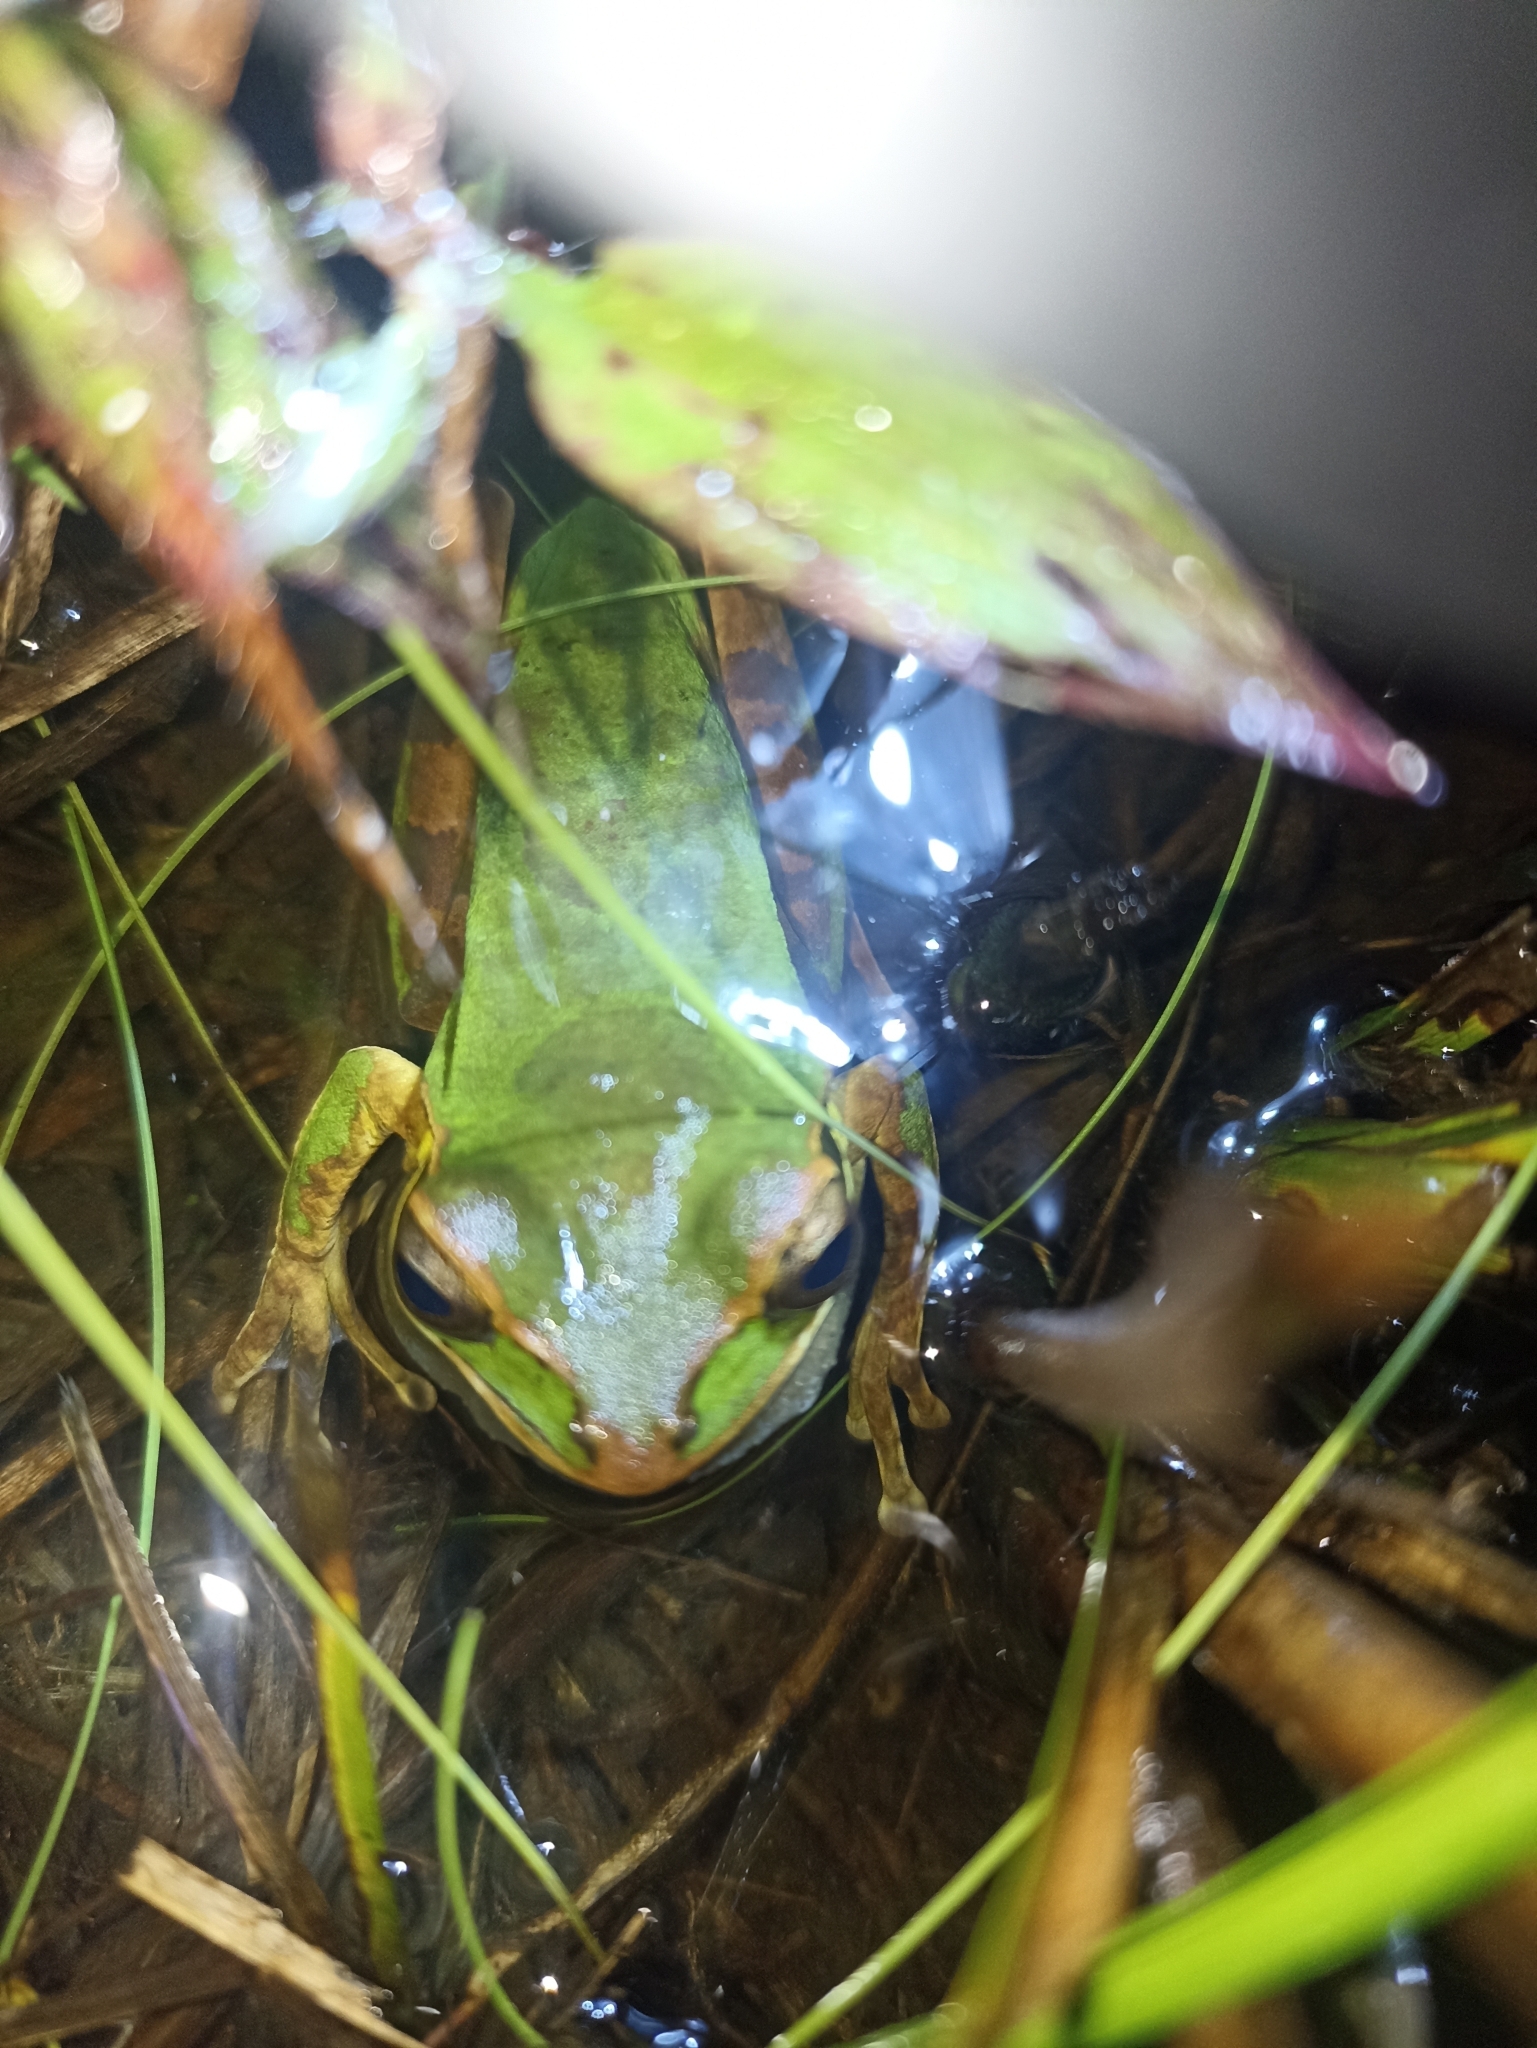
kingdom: Animalia
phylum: Chordata
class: Amphibia
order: Anura
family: Hylidae
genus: Smilisca
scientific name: Smilisca phaeota
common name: Central american smilisca
